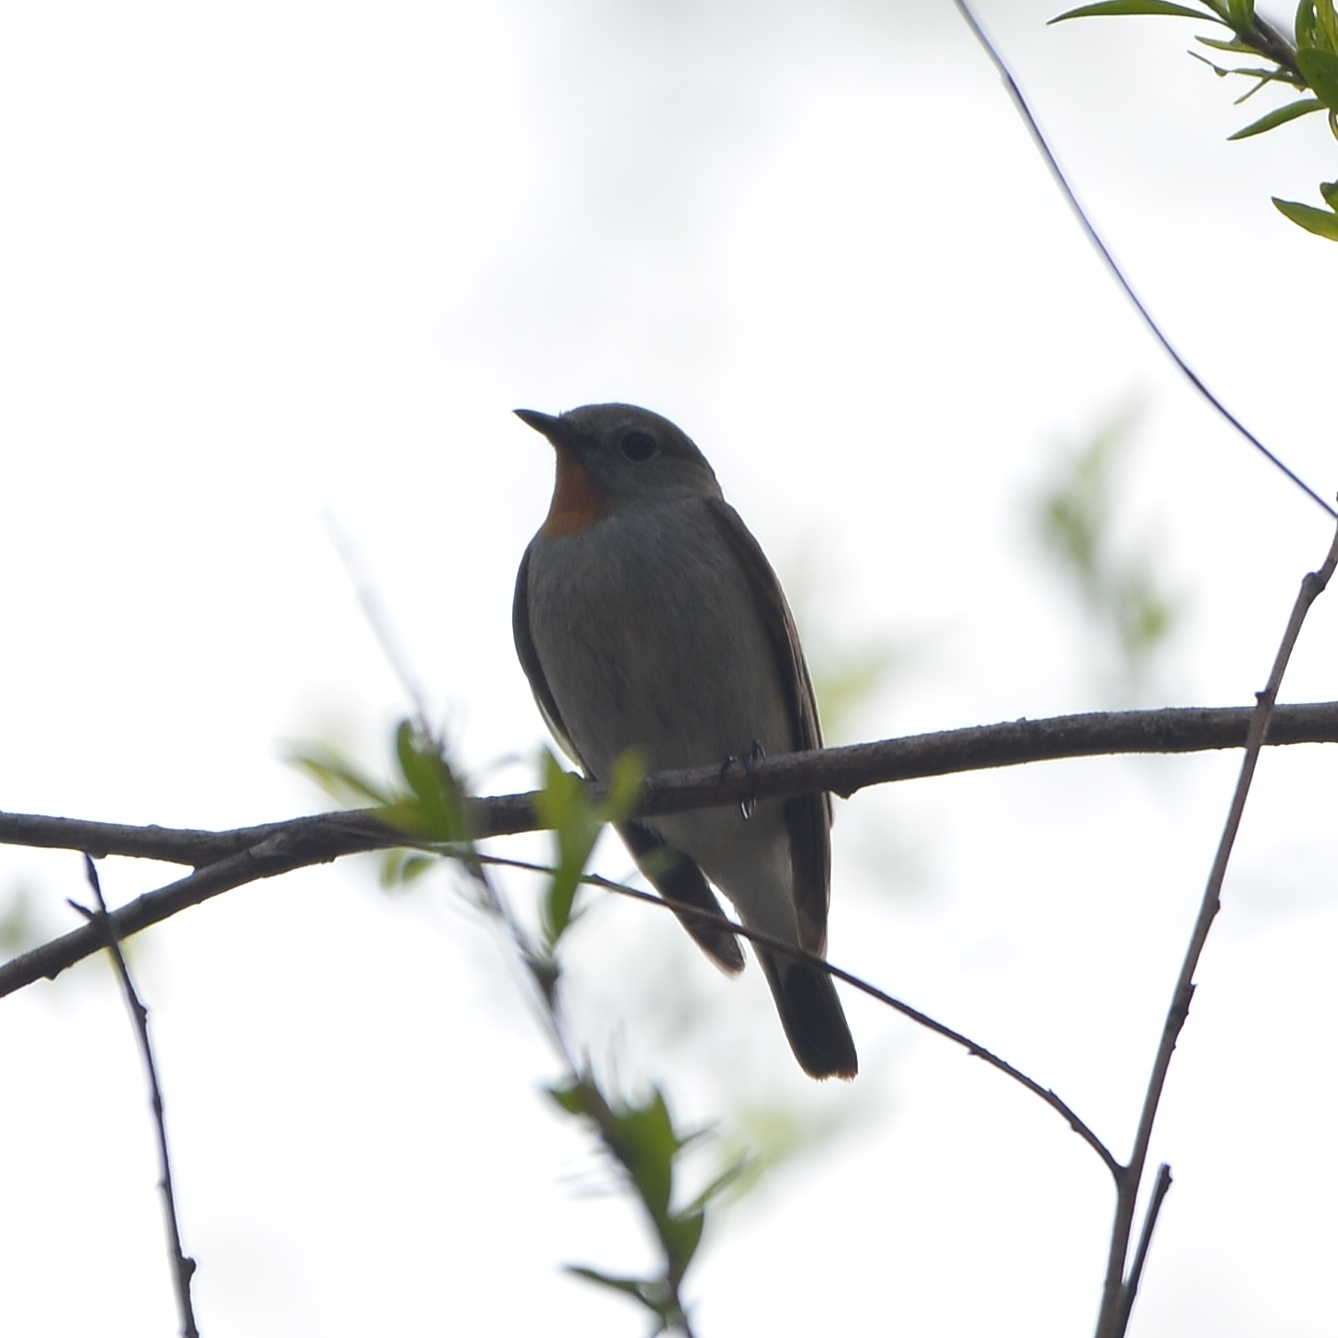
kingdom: Animalia
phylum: Chordata
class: Aves
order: Passeriformes
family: Muscicapidae
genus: Ficedula
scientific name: Ficedula albicilla
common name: Taiga flycatcher
